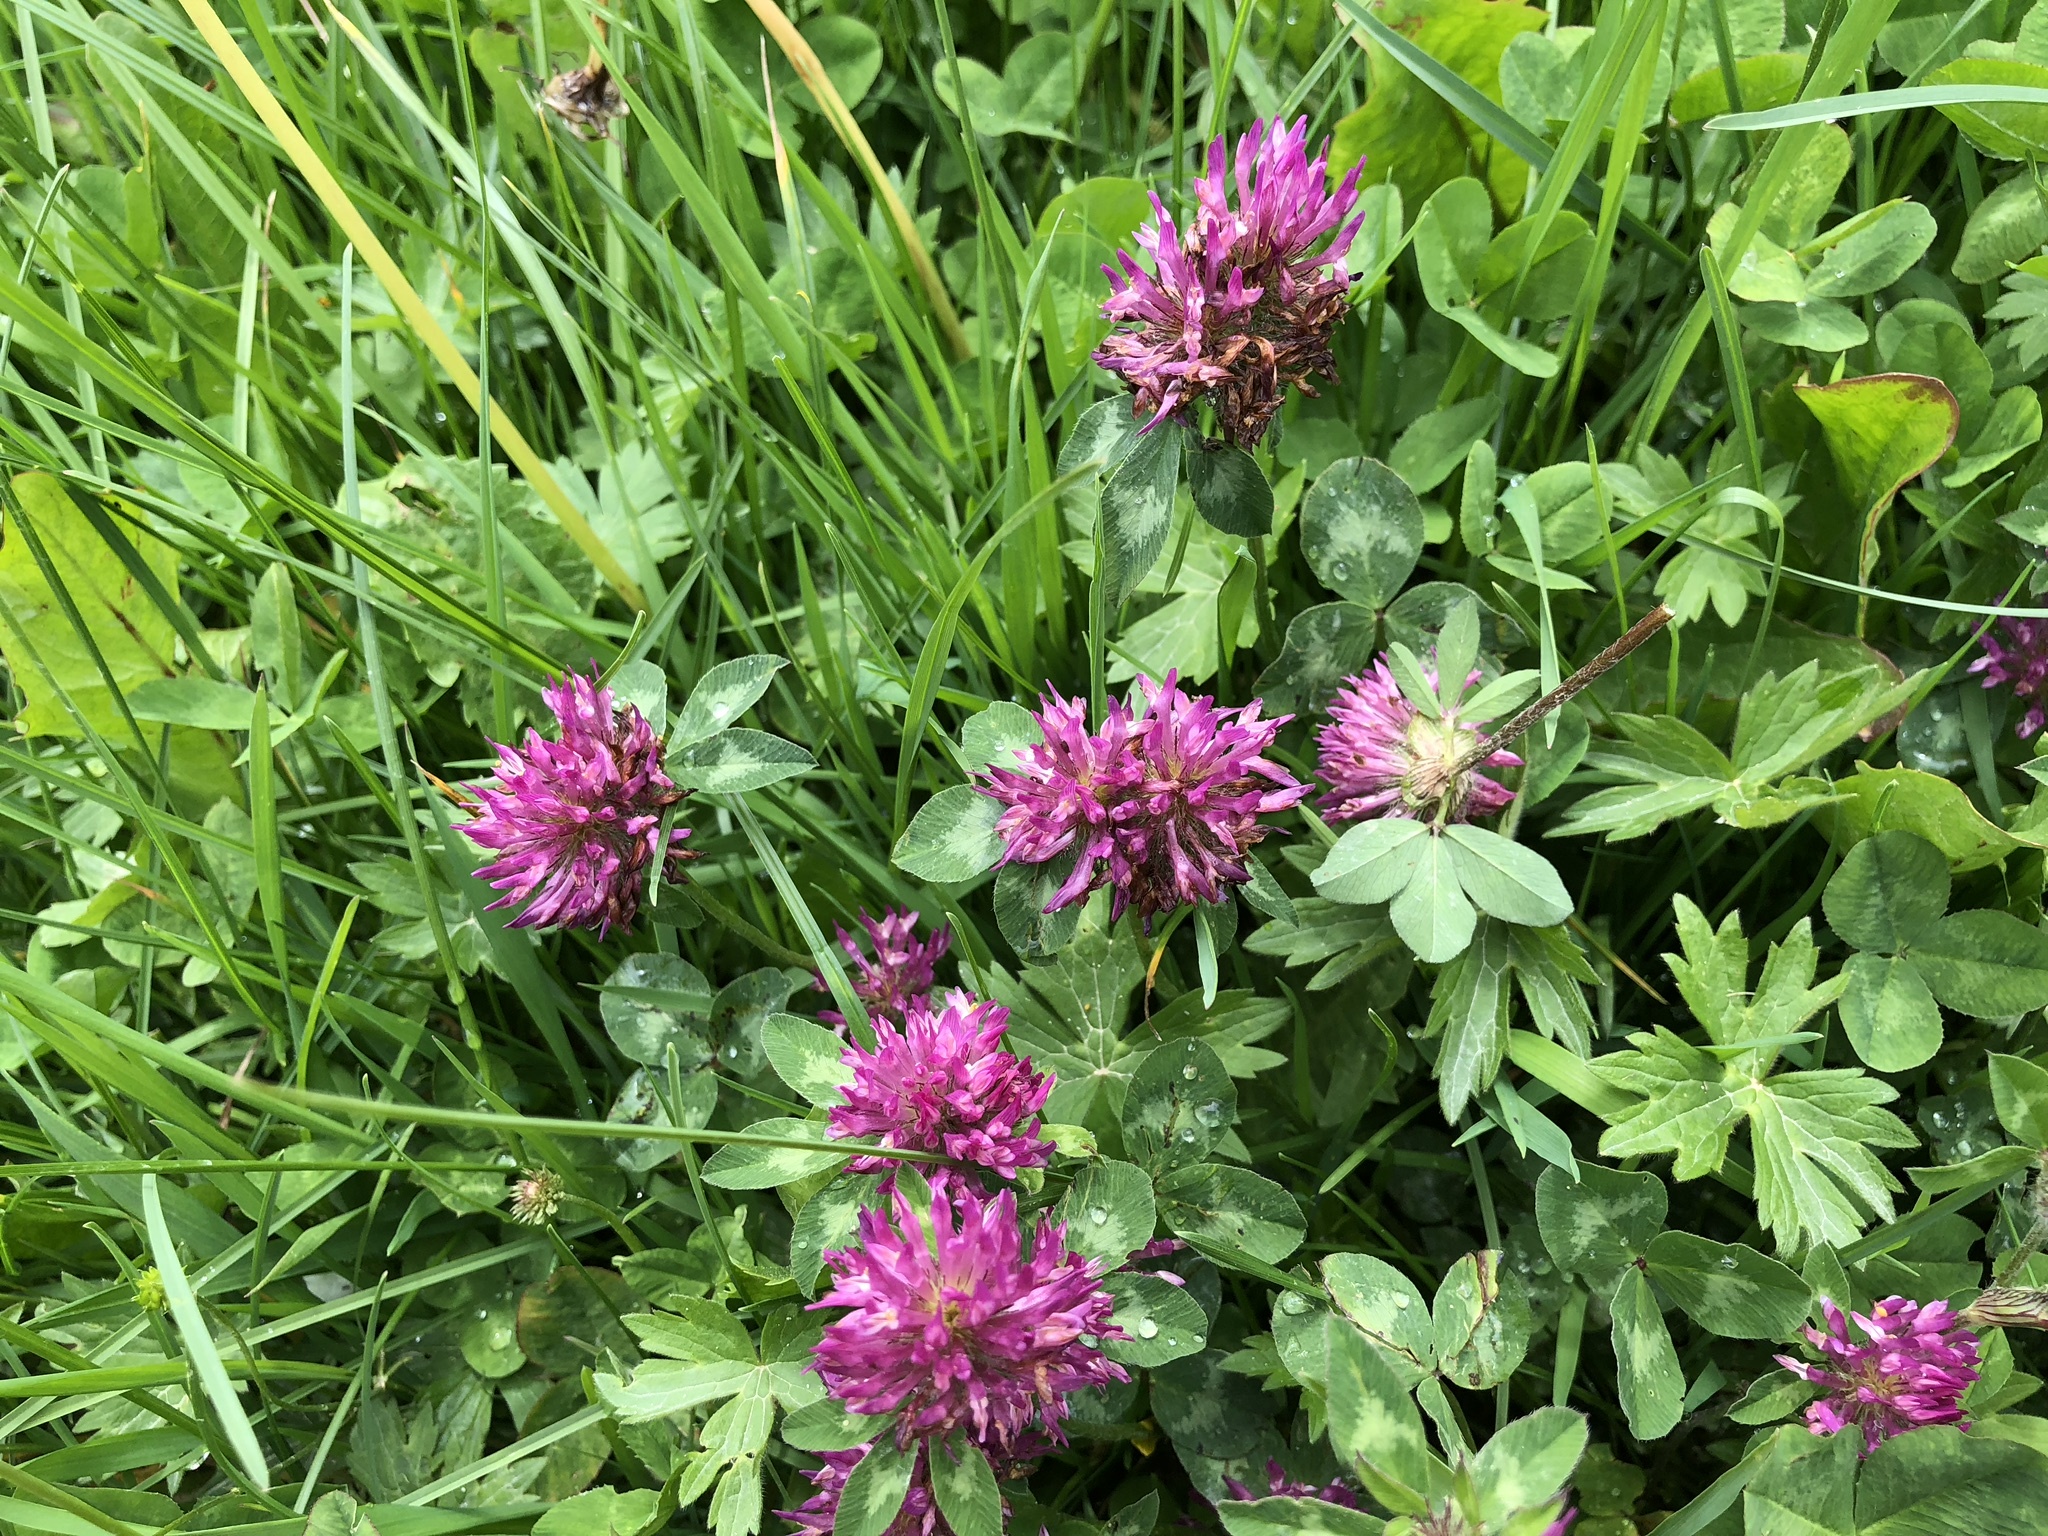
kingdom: Plantae
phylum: Tracheophyta
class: Magnoliopsida
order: Fabales
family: Fabaceae
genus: Trifolium
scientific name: Trifolium pratense
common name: Red clover
